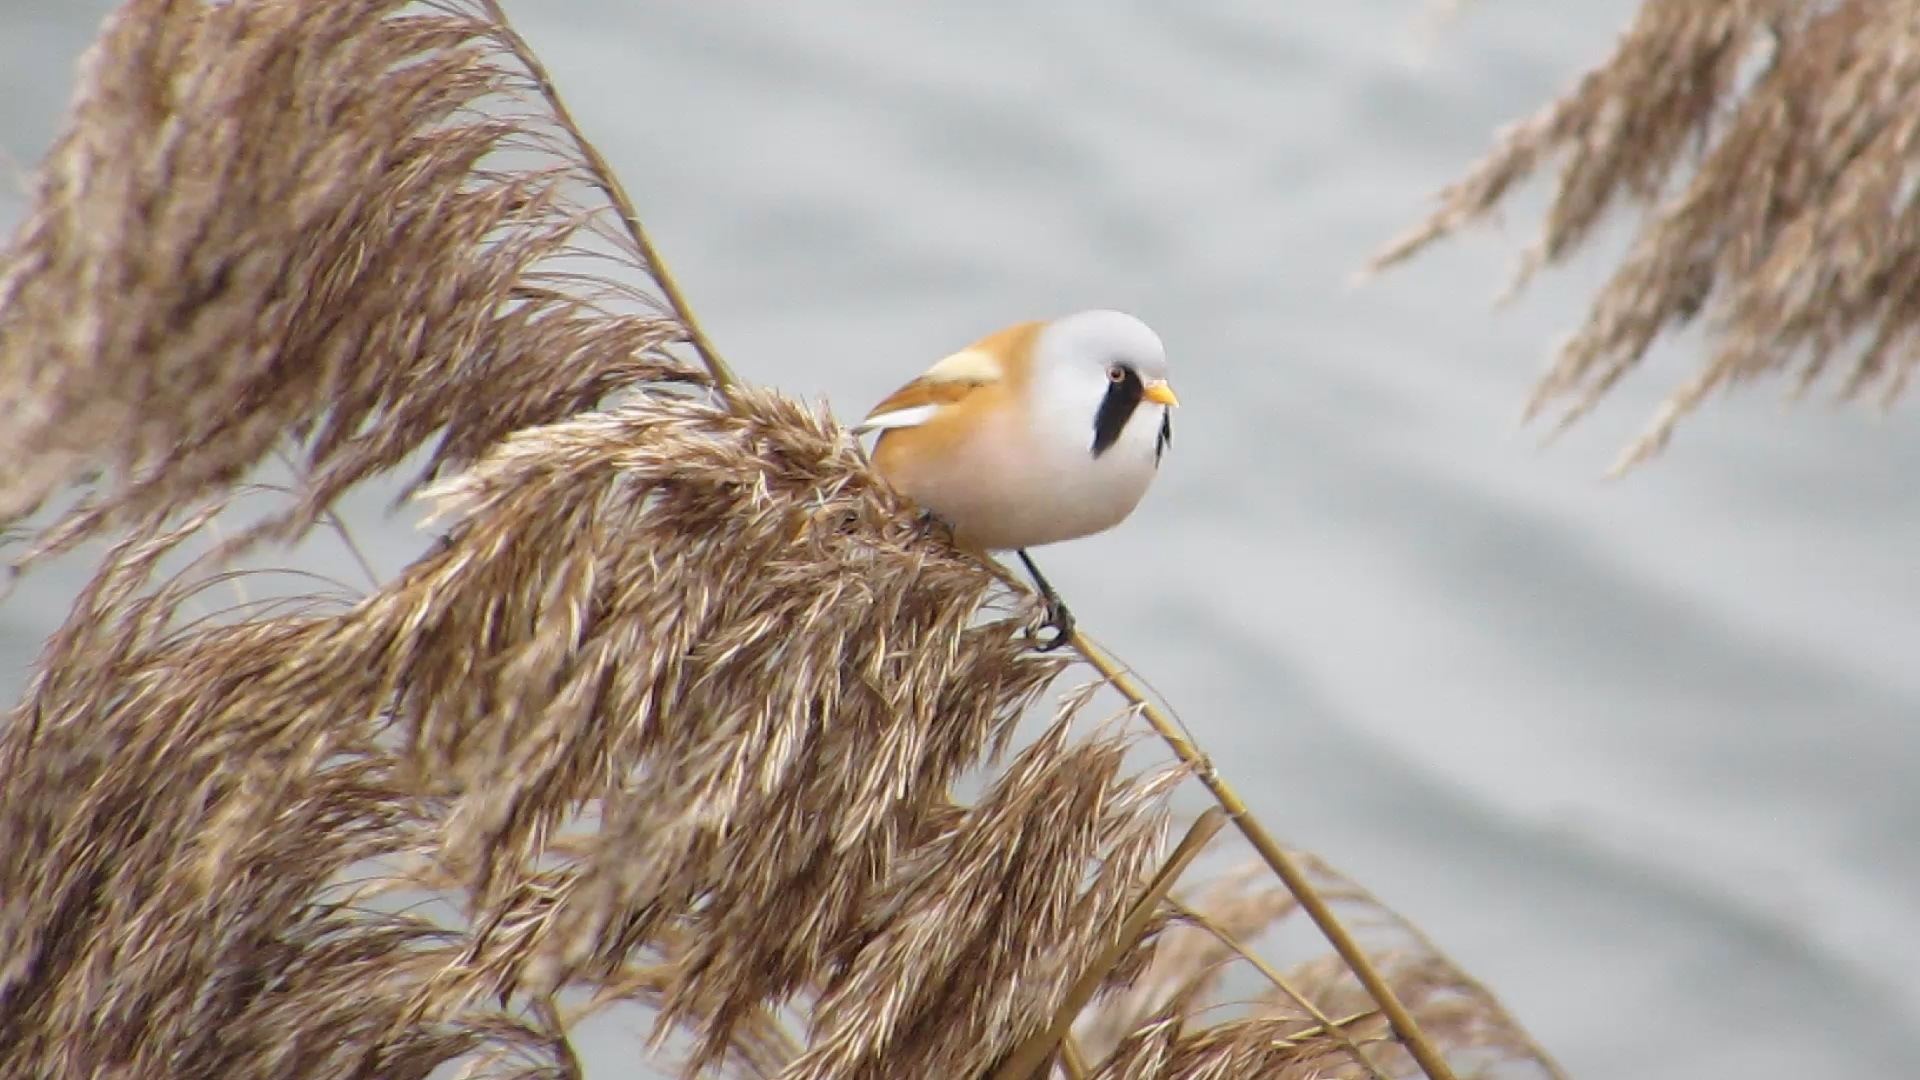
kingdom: Animalia
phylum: Chordata
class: Aves
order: Passeriformes
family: Panuridae
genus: Panurus
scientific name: Panurus biarmicus
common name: Bearded reedling
